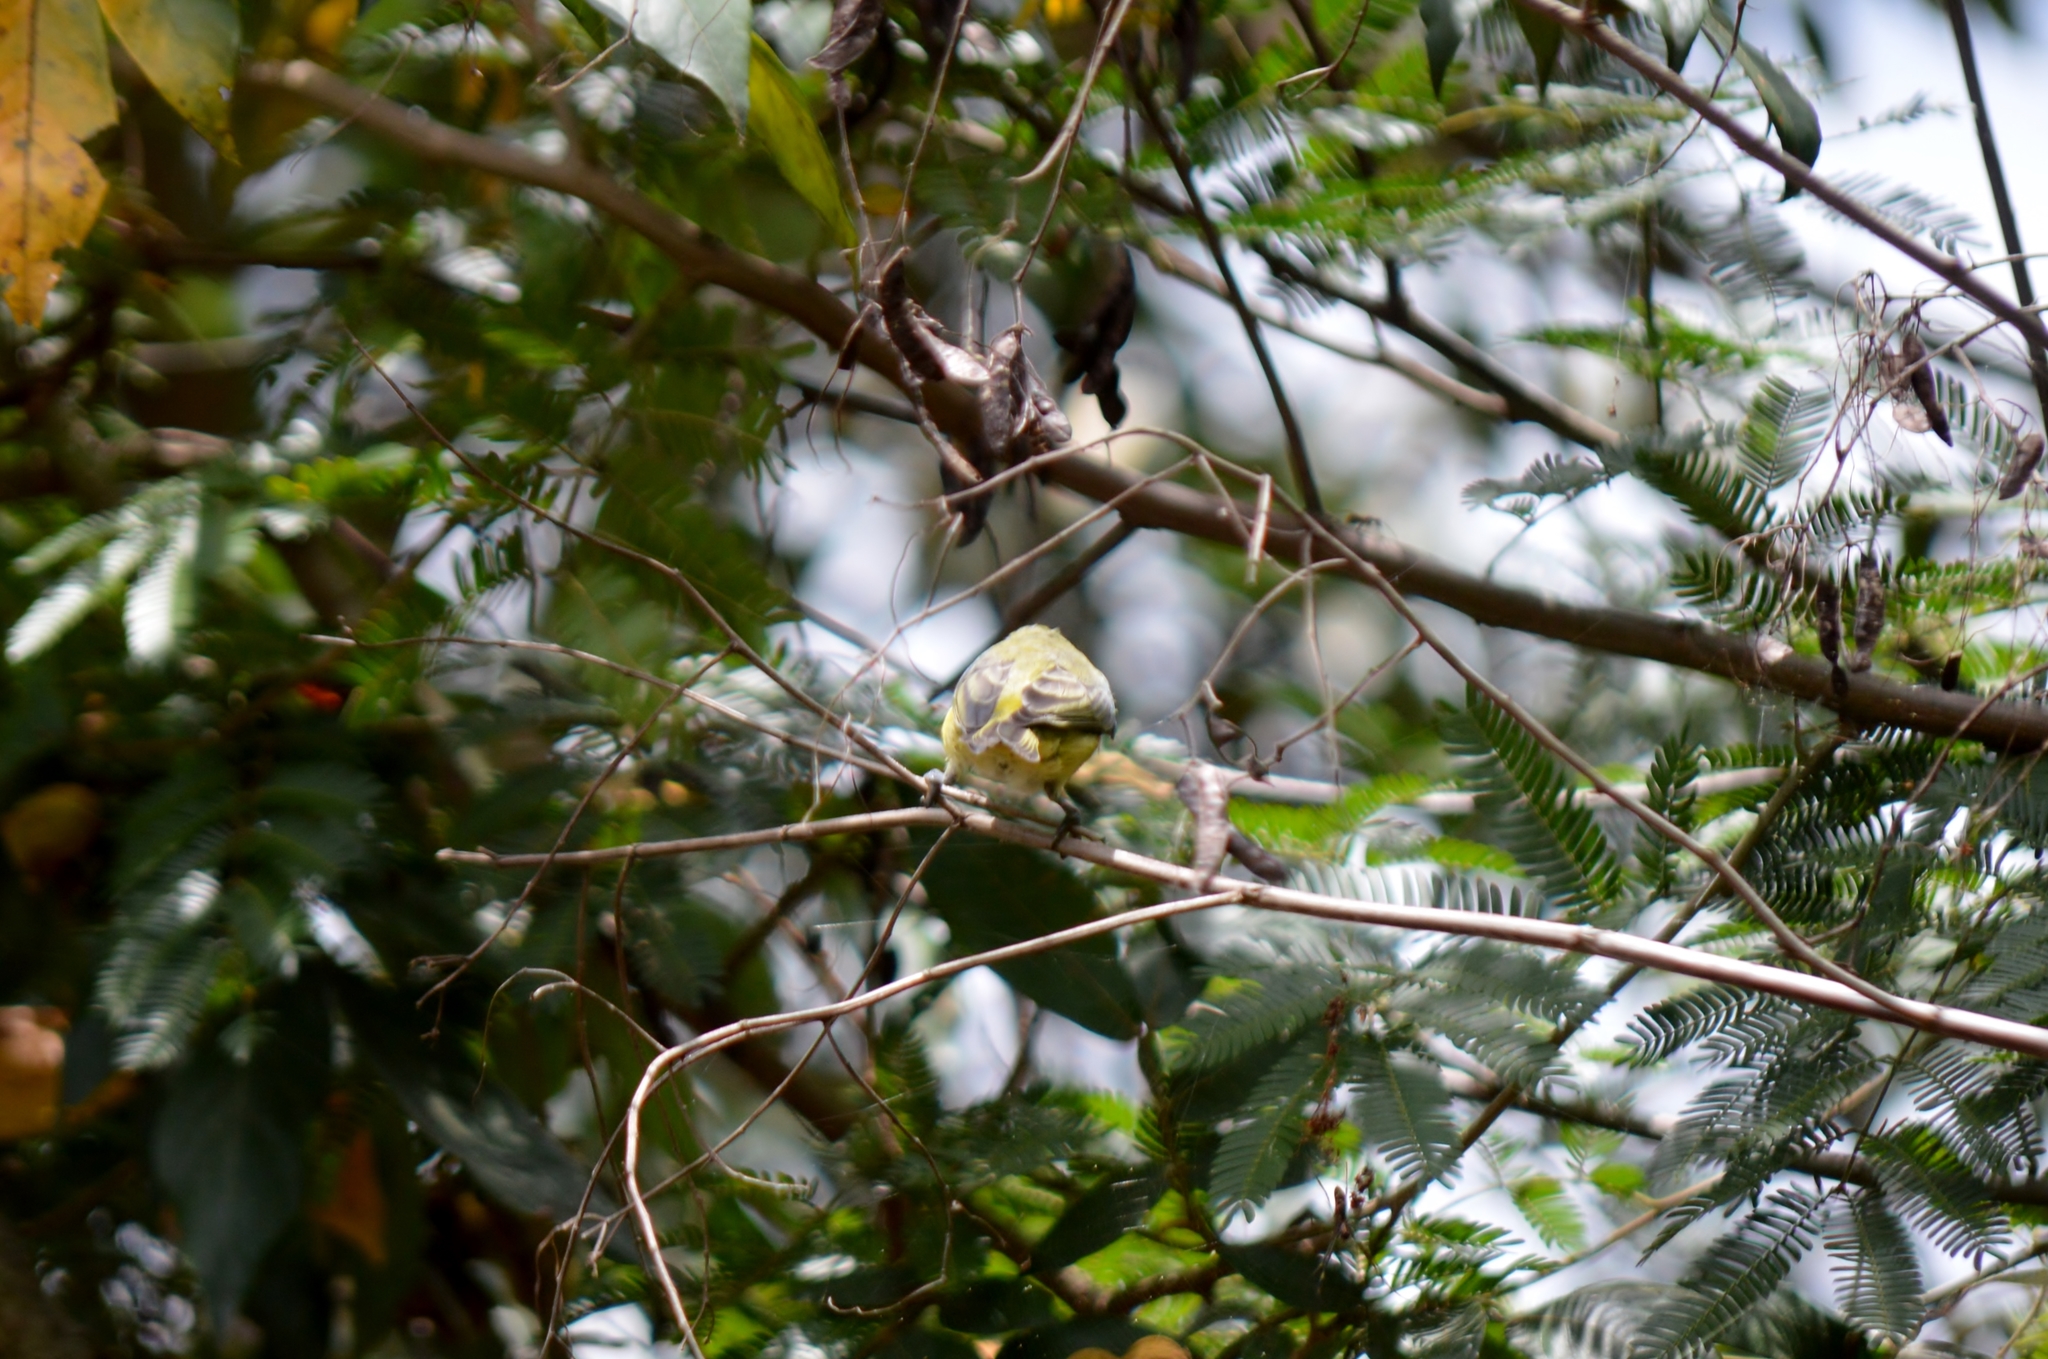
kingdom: Animalia
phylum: Chordata
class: Aves
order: Passeriformes
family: Fringillidae
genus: Euphonia
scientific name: Euphonia violacea
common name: Violaceous euphonia
